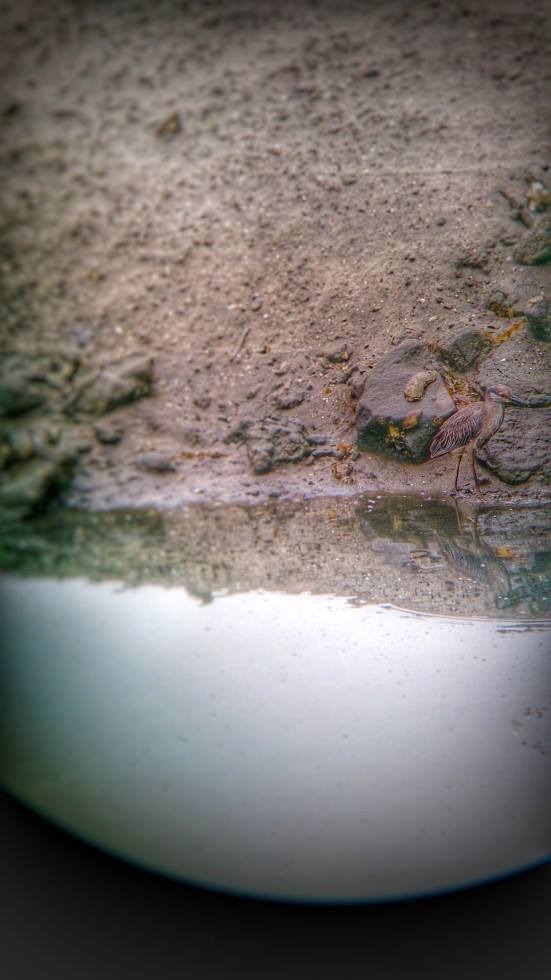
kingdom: Animalia
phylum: Chordata
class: Aves
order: Pelecaniformes
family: Ardeidae
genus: Nyctanassa
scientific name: Nyctanassa violacea
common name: Yellow-crowned night heron
